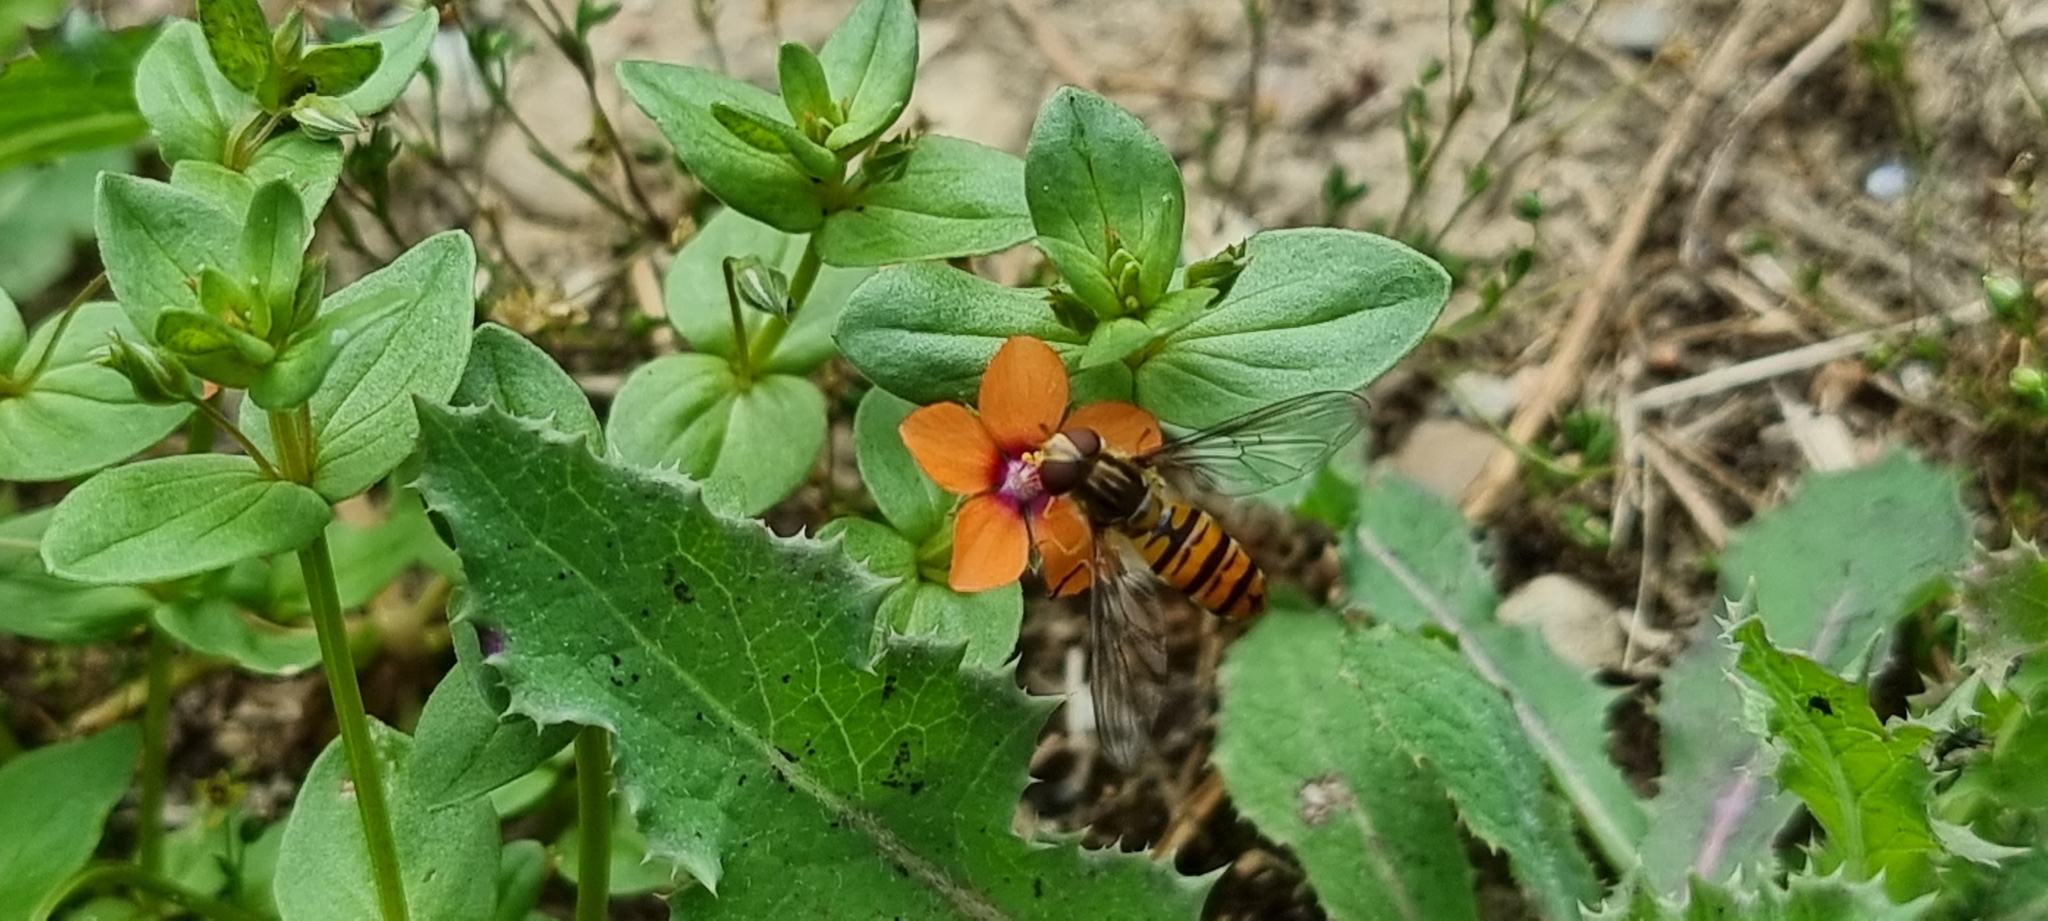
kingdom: Animalia
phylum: Arthropoda
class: Insecta
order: Diptera
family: Syrphidae
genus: Episyrphus
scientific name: Episyrphus balteatus
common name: Marmalade hoverfly
